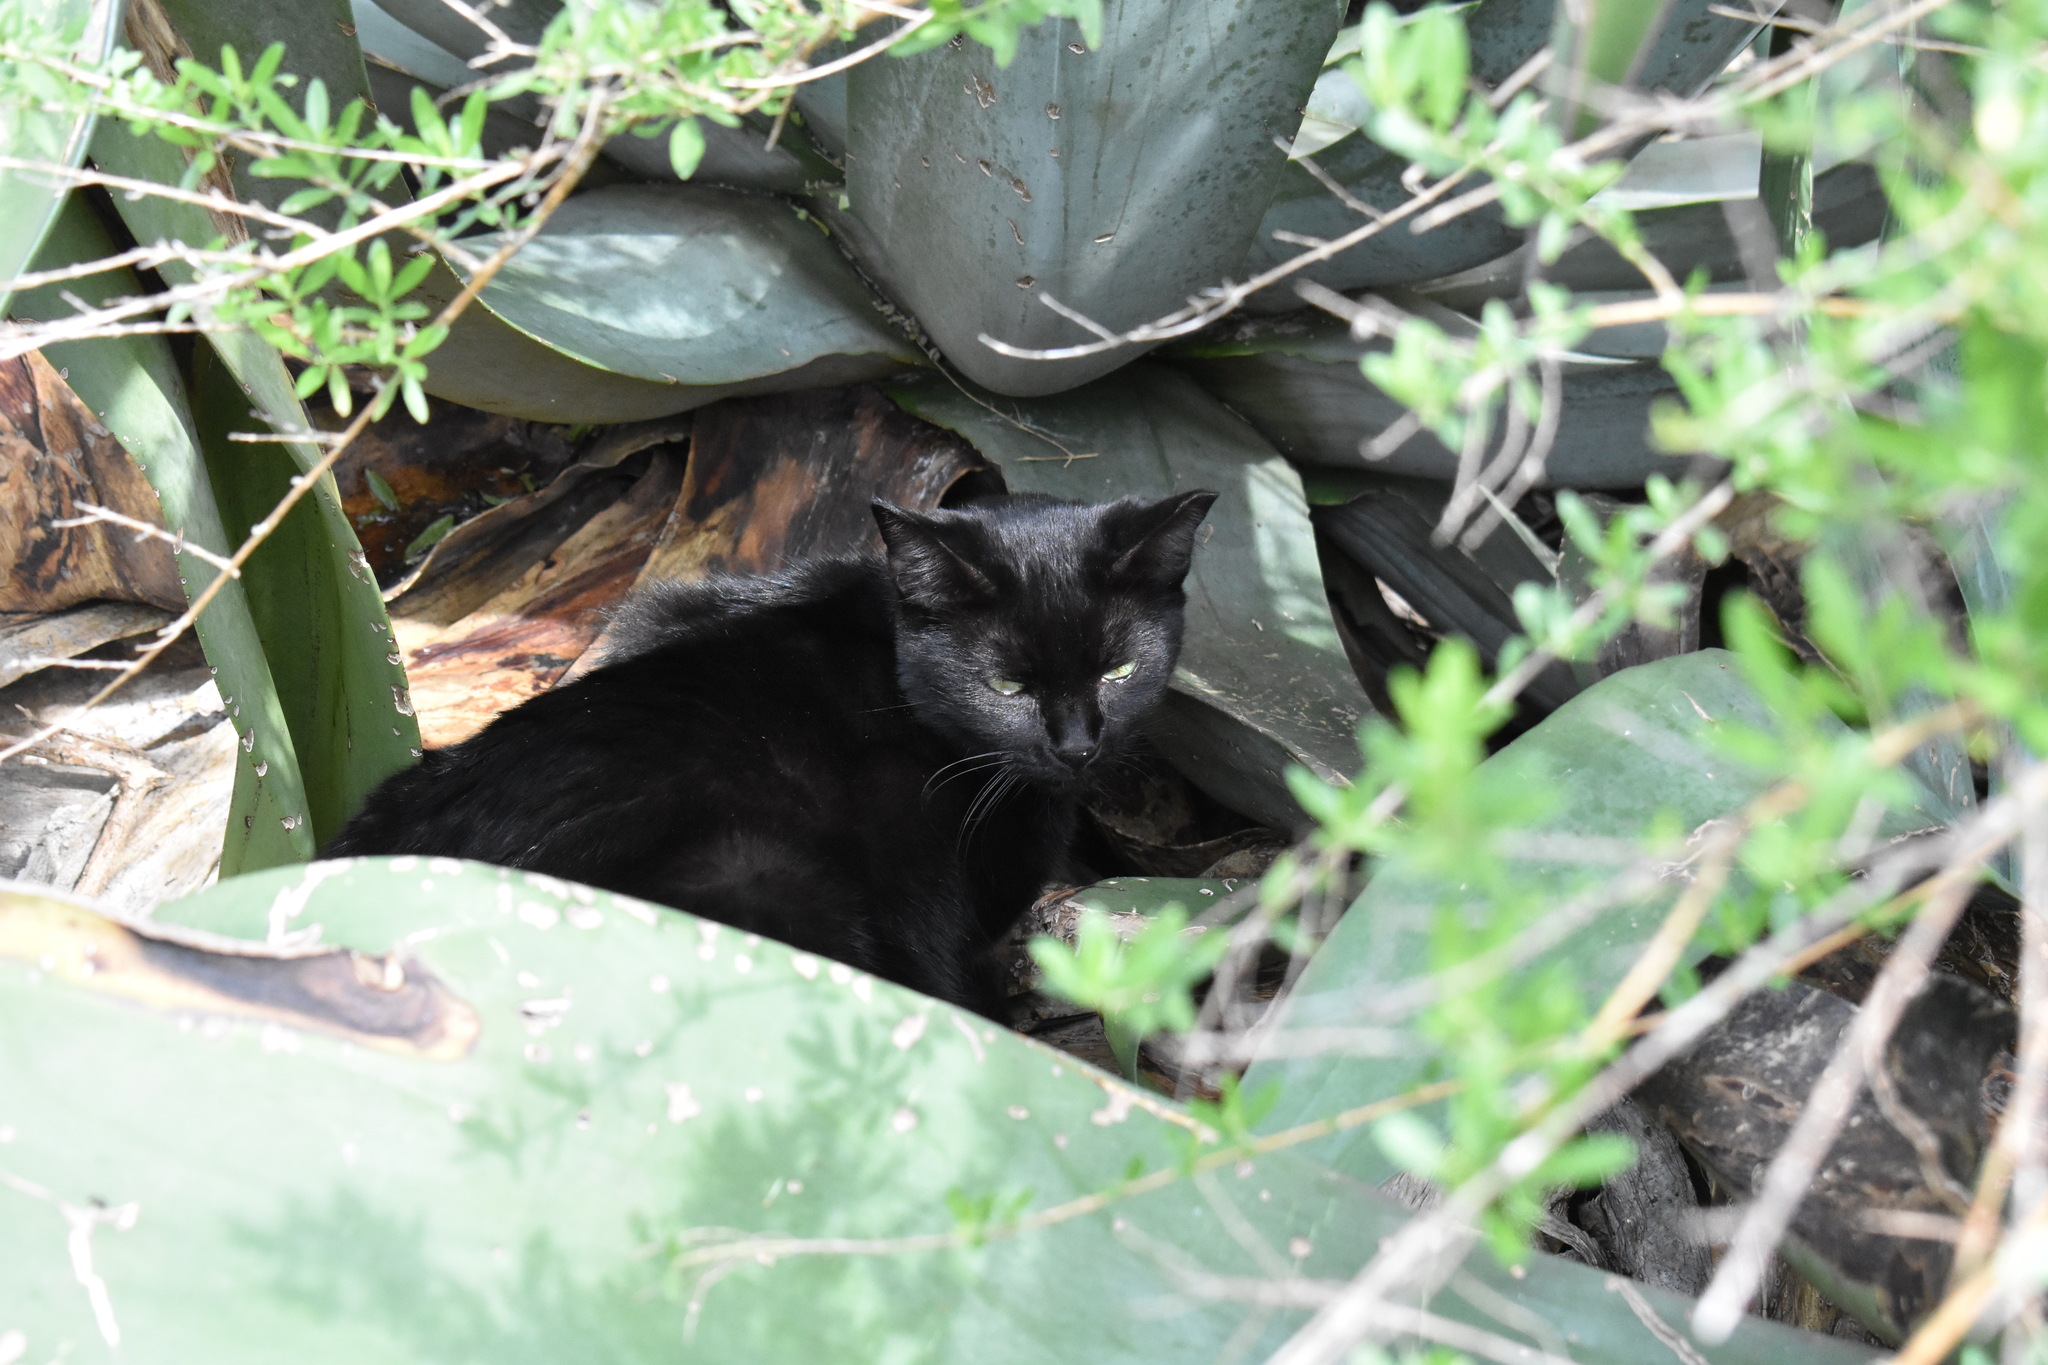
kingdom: Animalia
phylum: Chordata
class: Mammalia
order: Carnivora
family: Felidae
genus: Felis
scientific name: Felis catus
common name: Domestic cat
